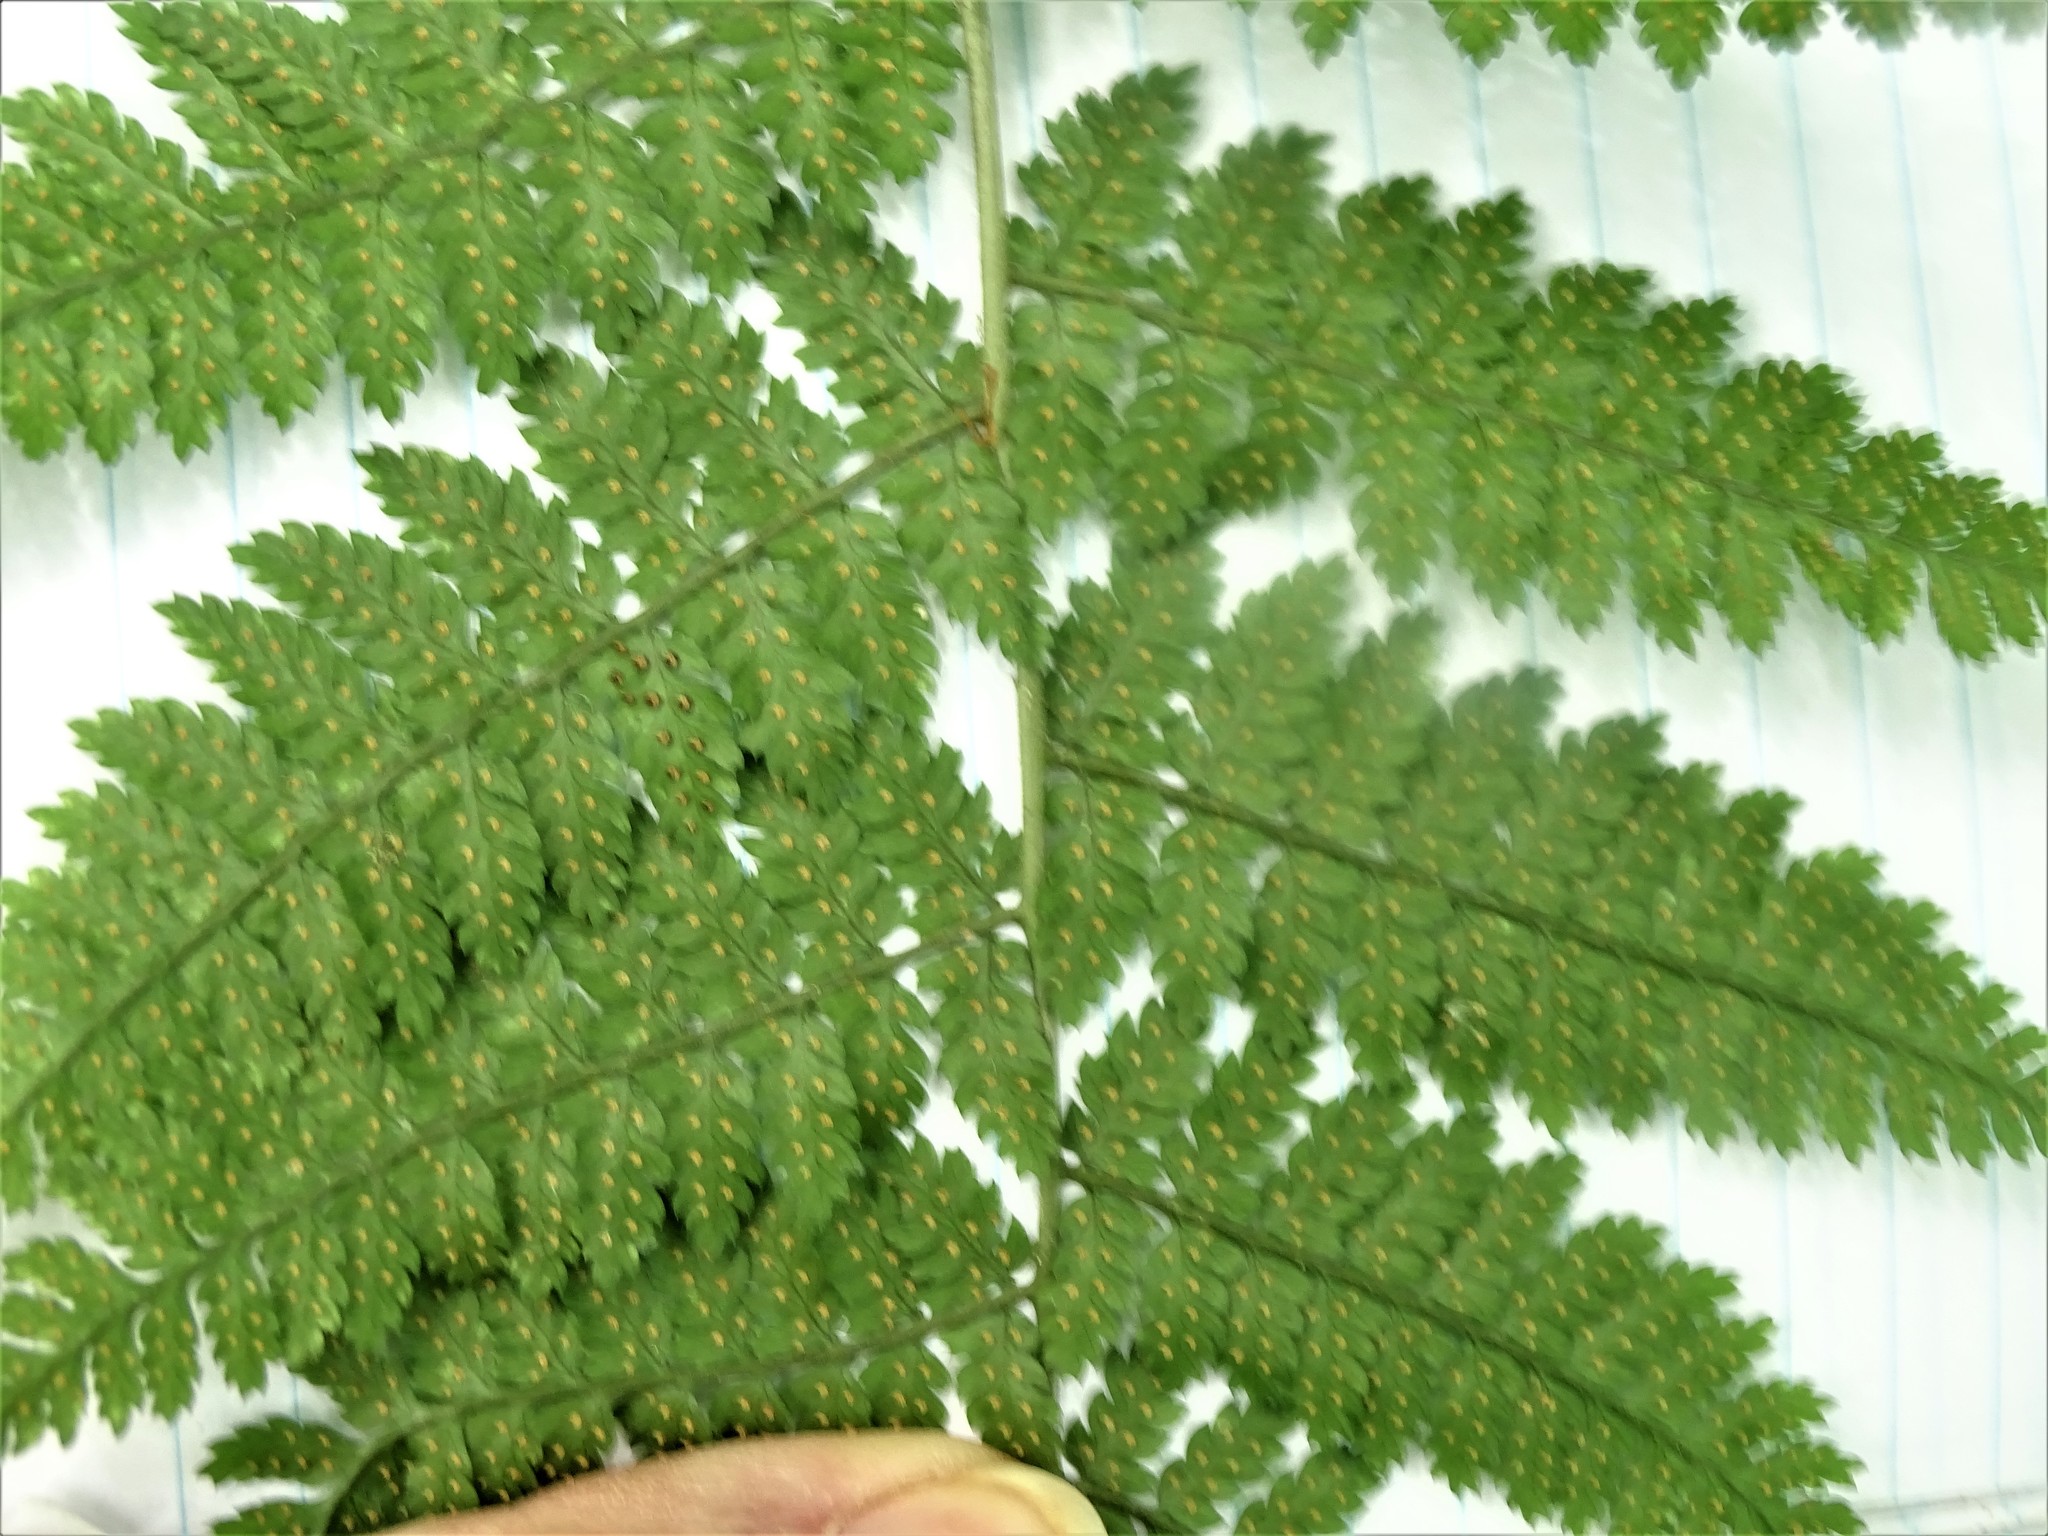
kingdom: Plantae
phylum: Tracheophyta
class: Polypodiopsida
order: Polypodiales
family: Dryopteridaceae
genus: Dryopteris
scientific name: Dryopteris intermedia
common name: Evergreen wood fern
